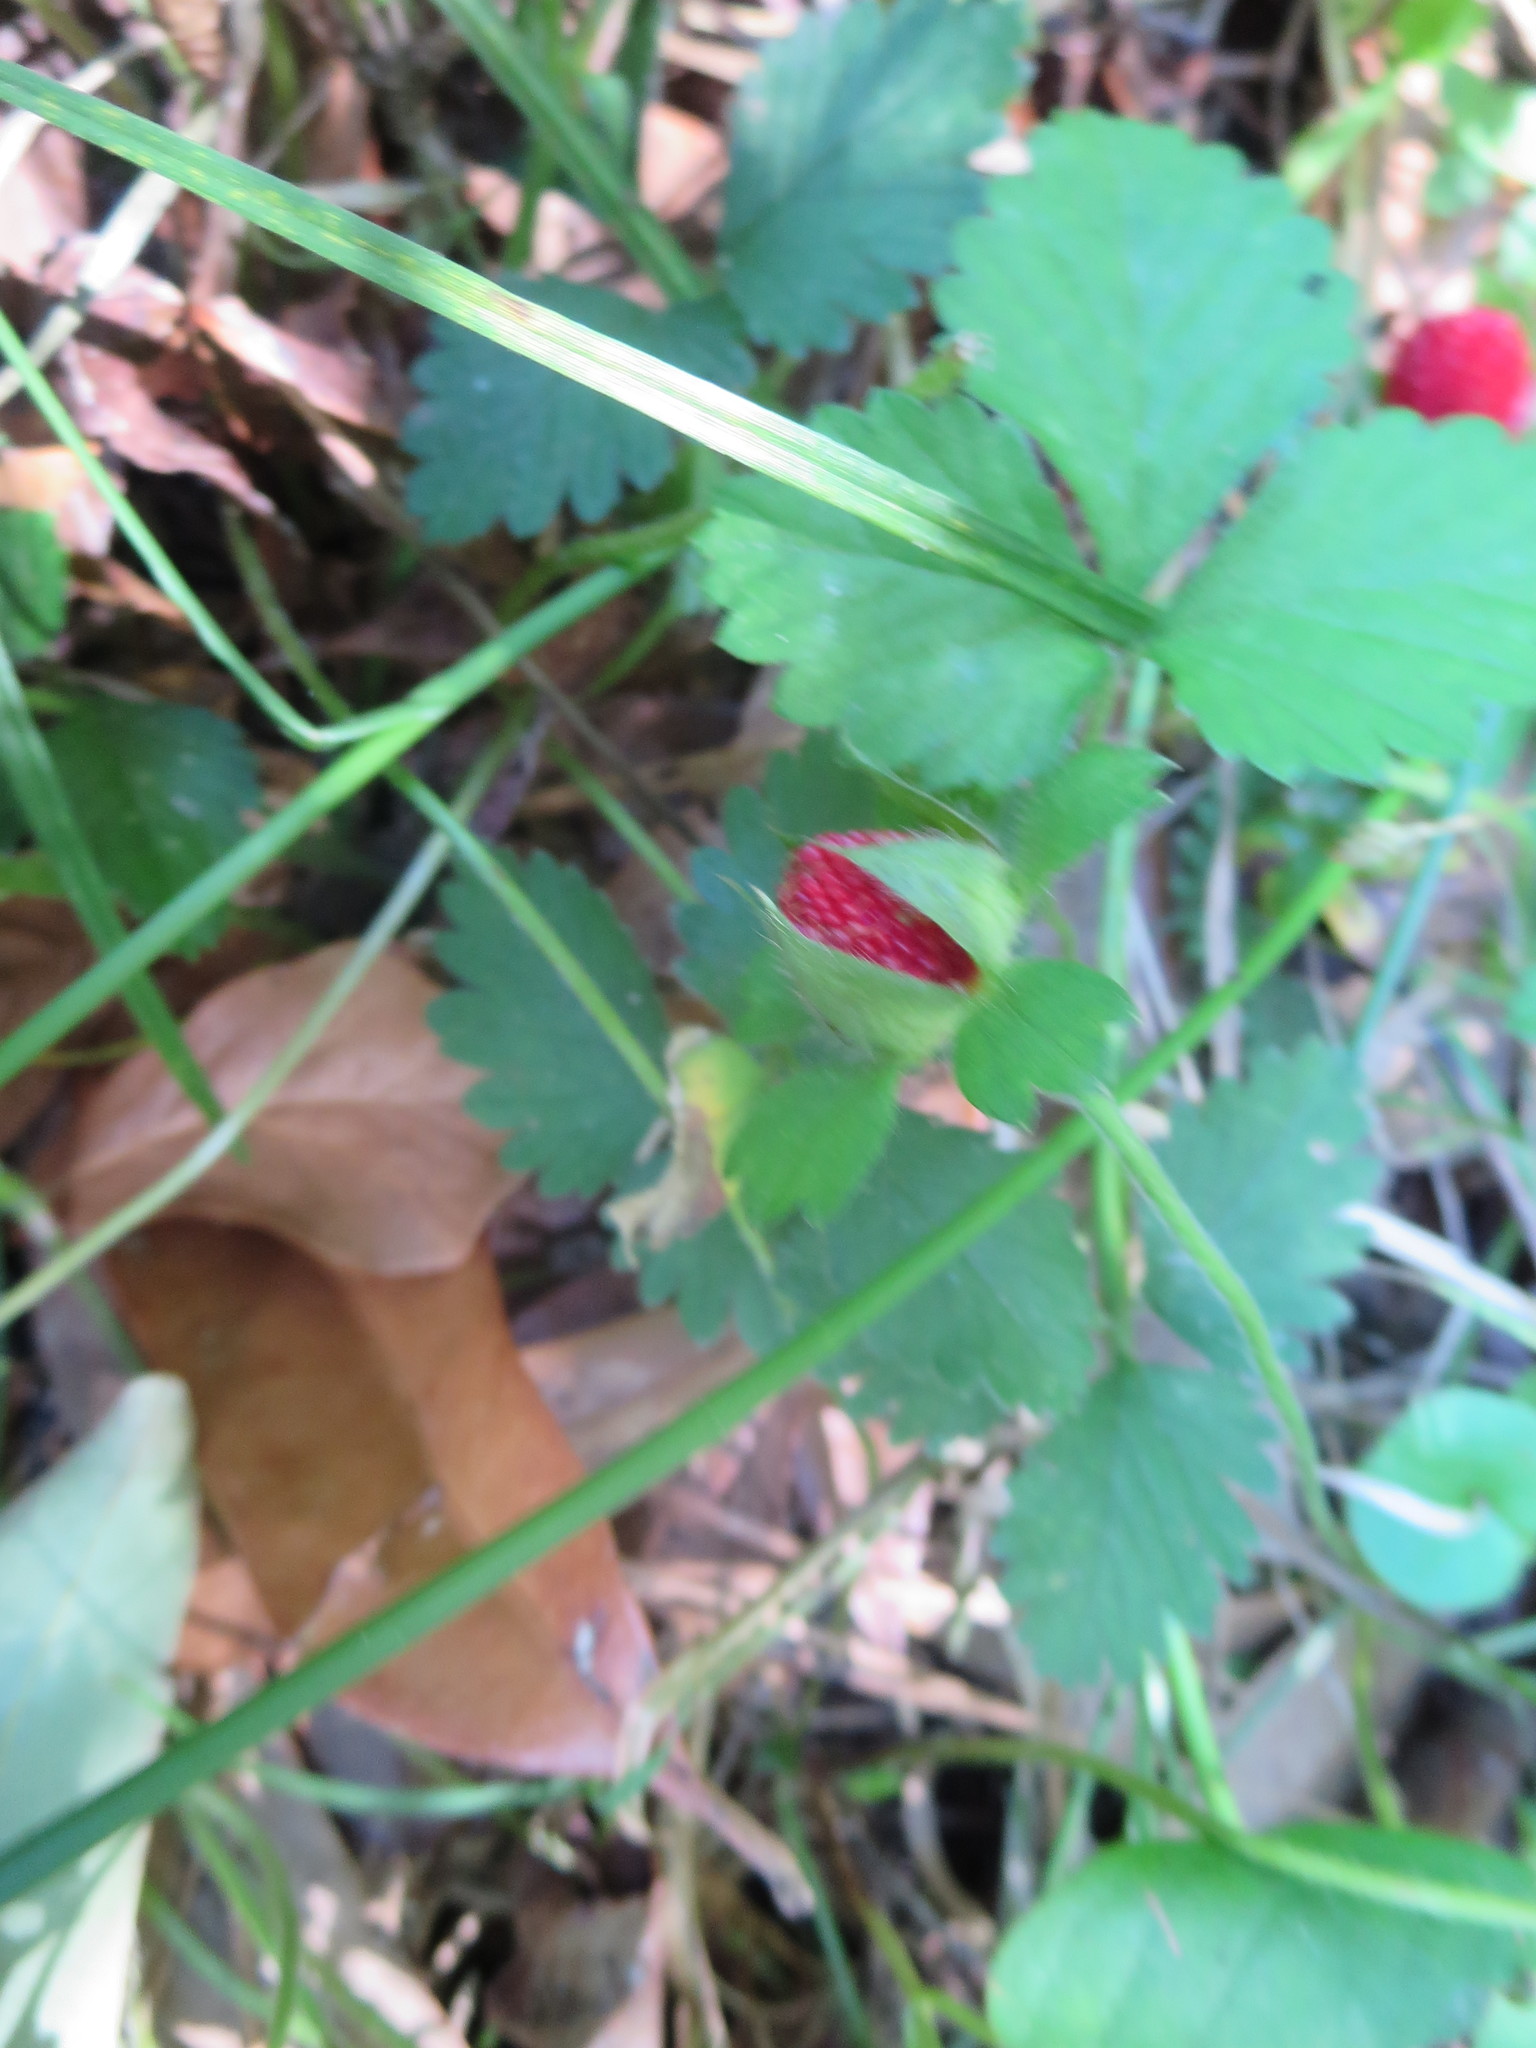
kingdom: Plantae
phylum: Tracheophyta
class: Magnoliopsida
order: Rosales
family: Rosaceae
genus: Potentilla
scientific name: Potentilla indica
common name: Yellow-flowered strawberry
